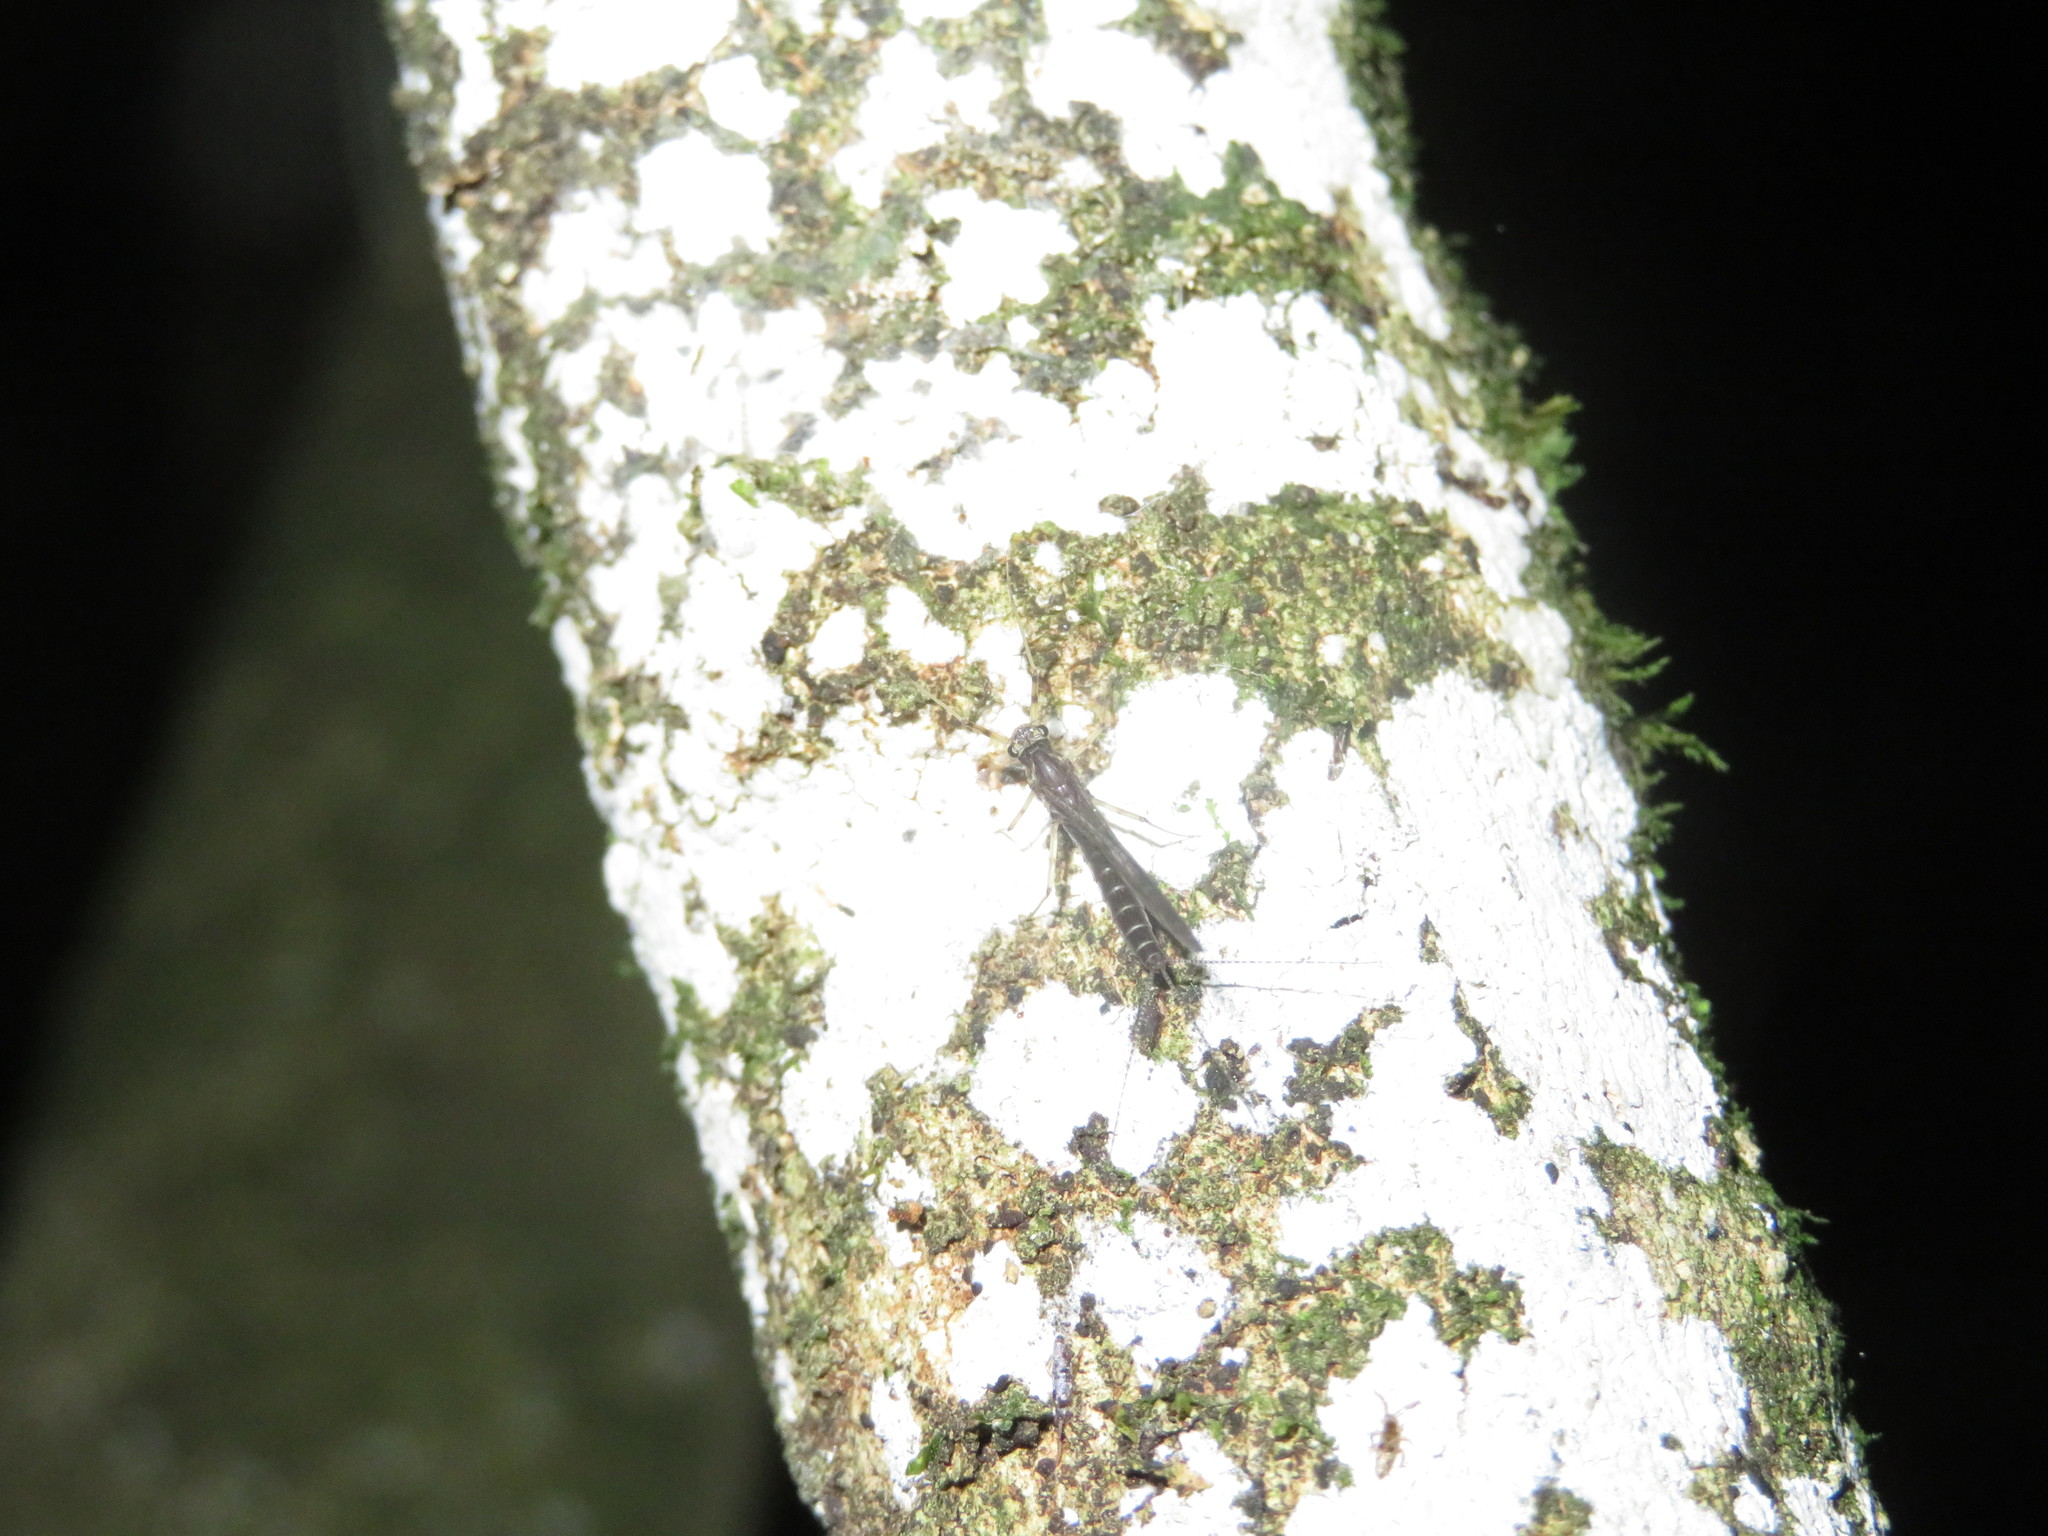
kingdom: Animalia
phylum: Arthropoda
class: Insecta
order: Ephemeroptera
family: Leptophlebiidae
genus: Neozephlebia
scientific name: Neozephlebia scita
